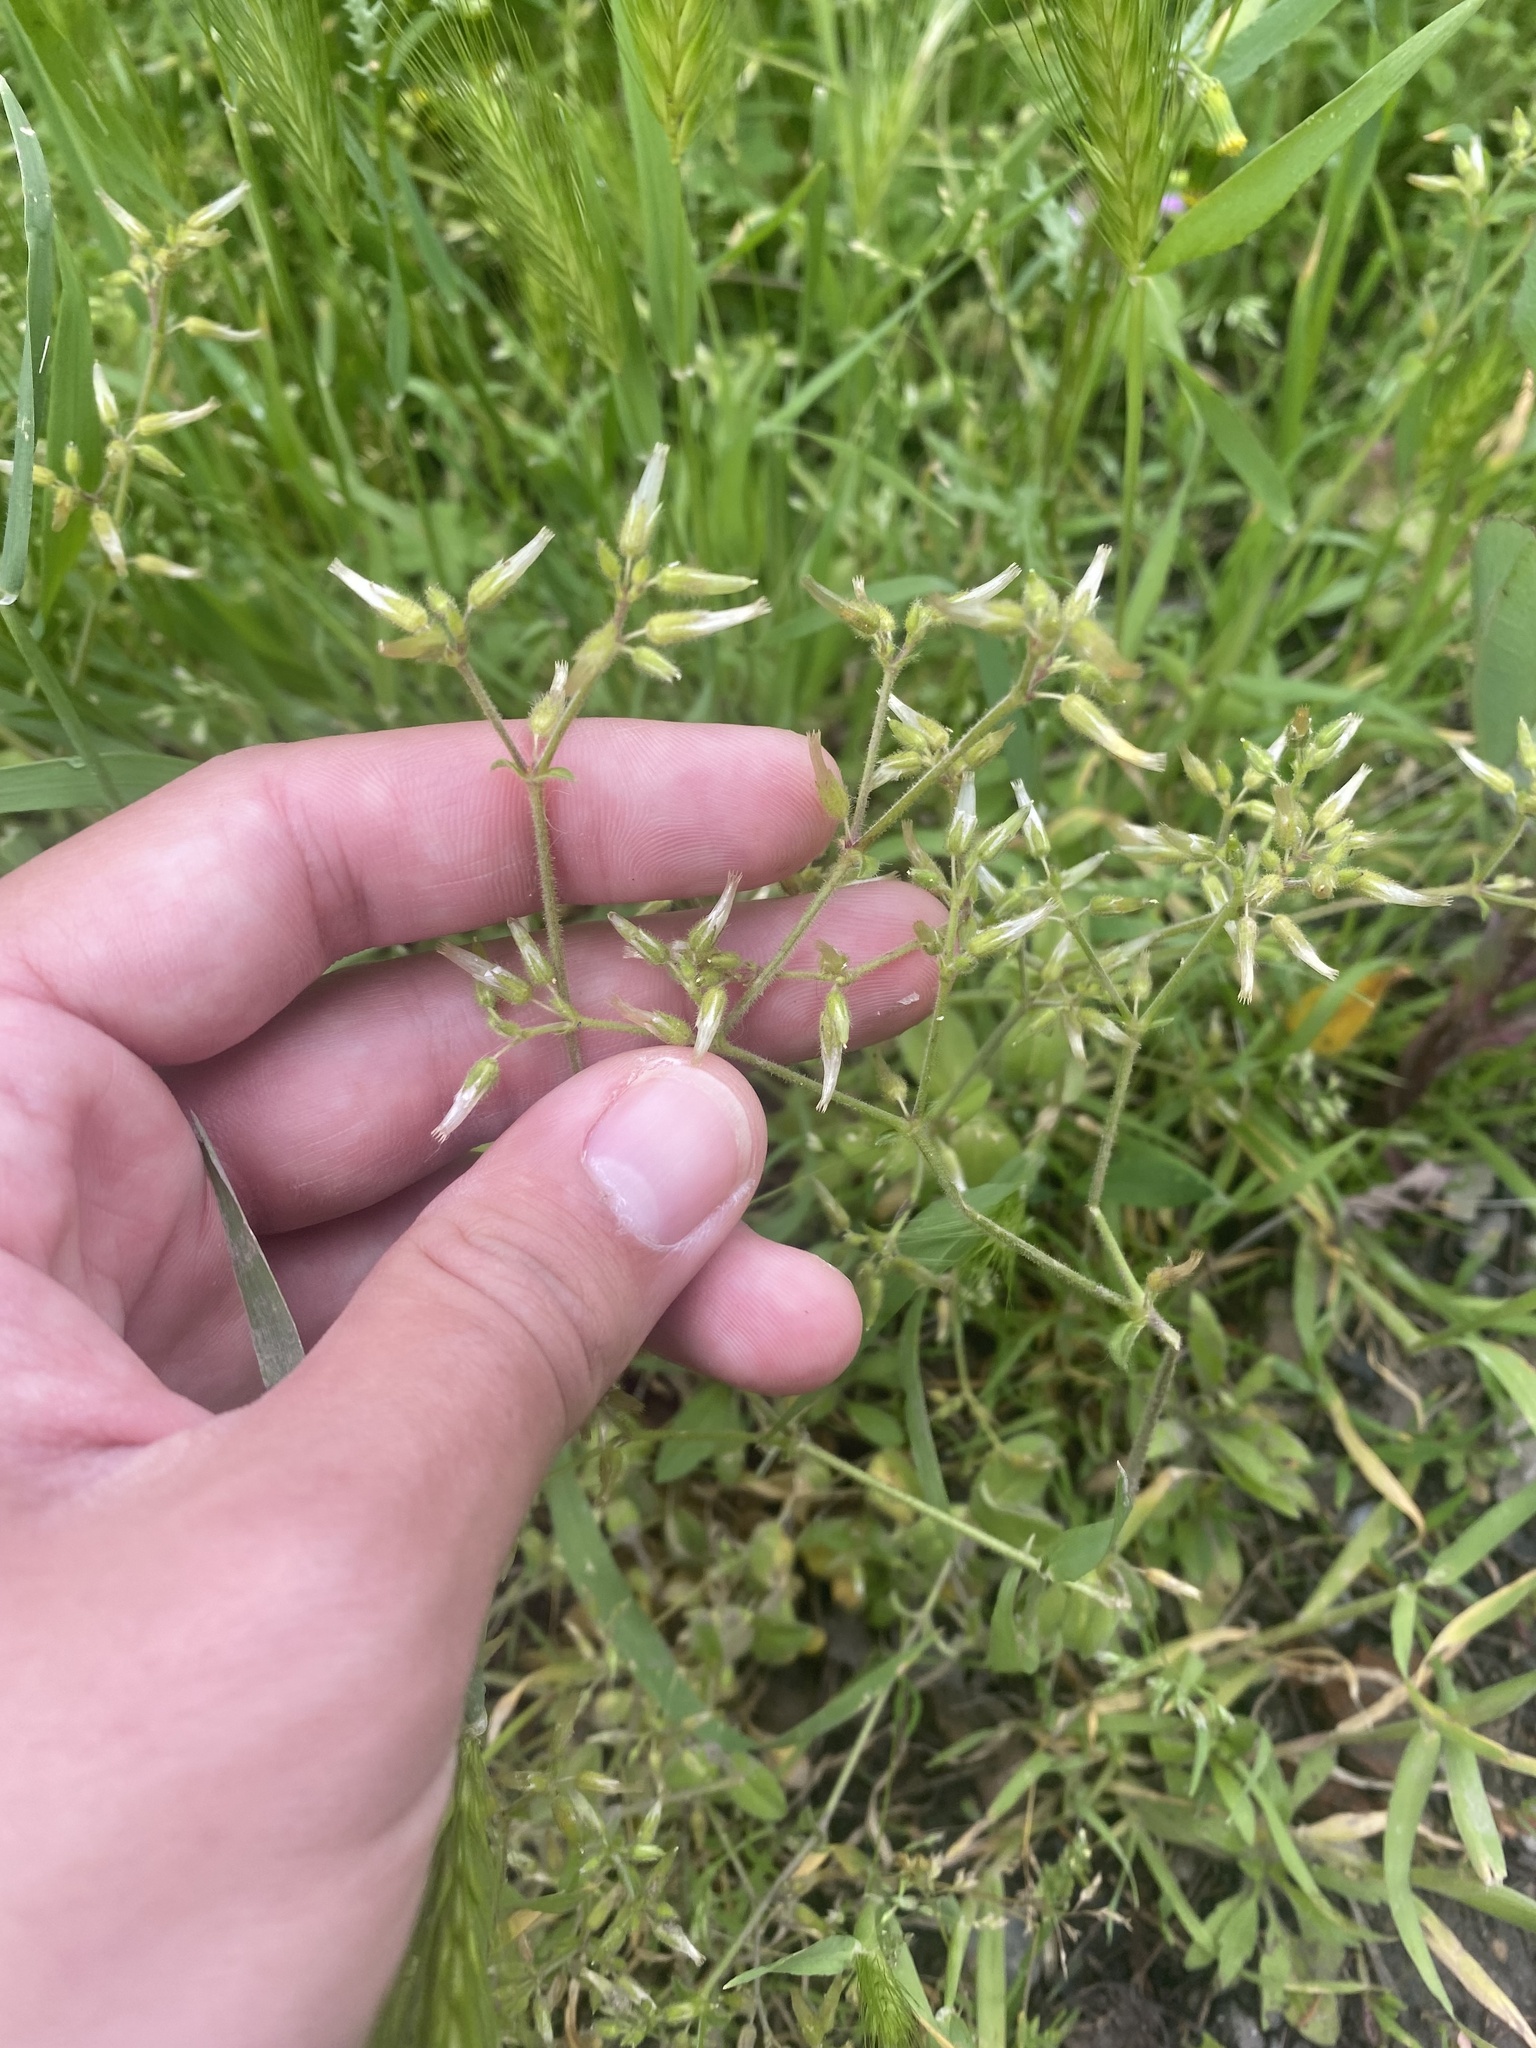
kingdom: Plantae
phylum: Tracheophyta
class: Magnoliopsida
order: Caryophyllales
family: Caryophyllaceae
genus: Cerastium
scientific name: Cerastium glomeratum
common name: Sticky chickweed
